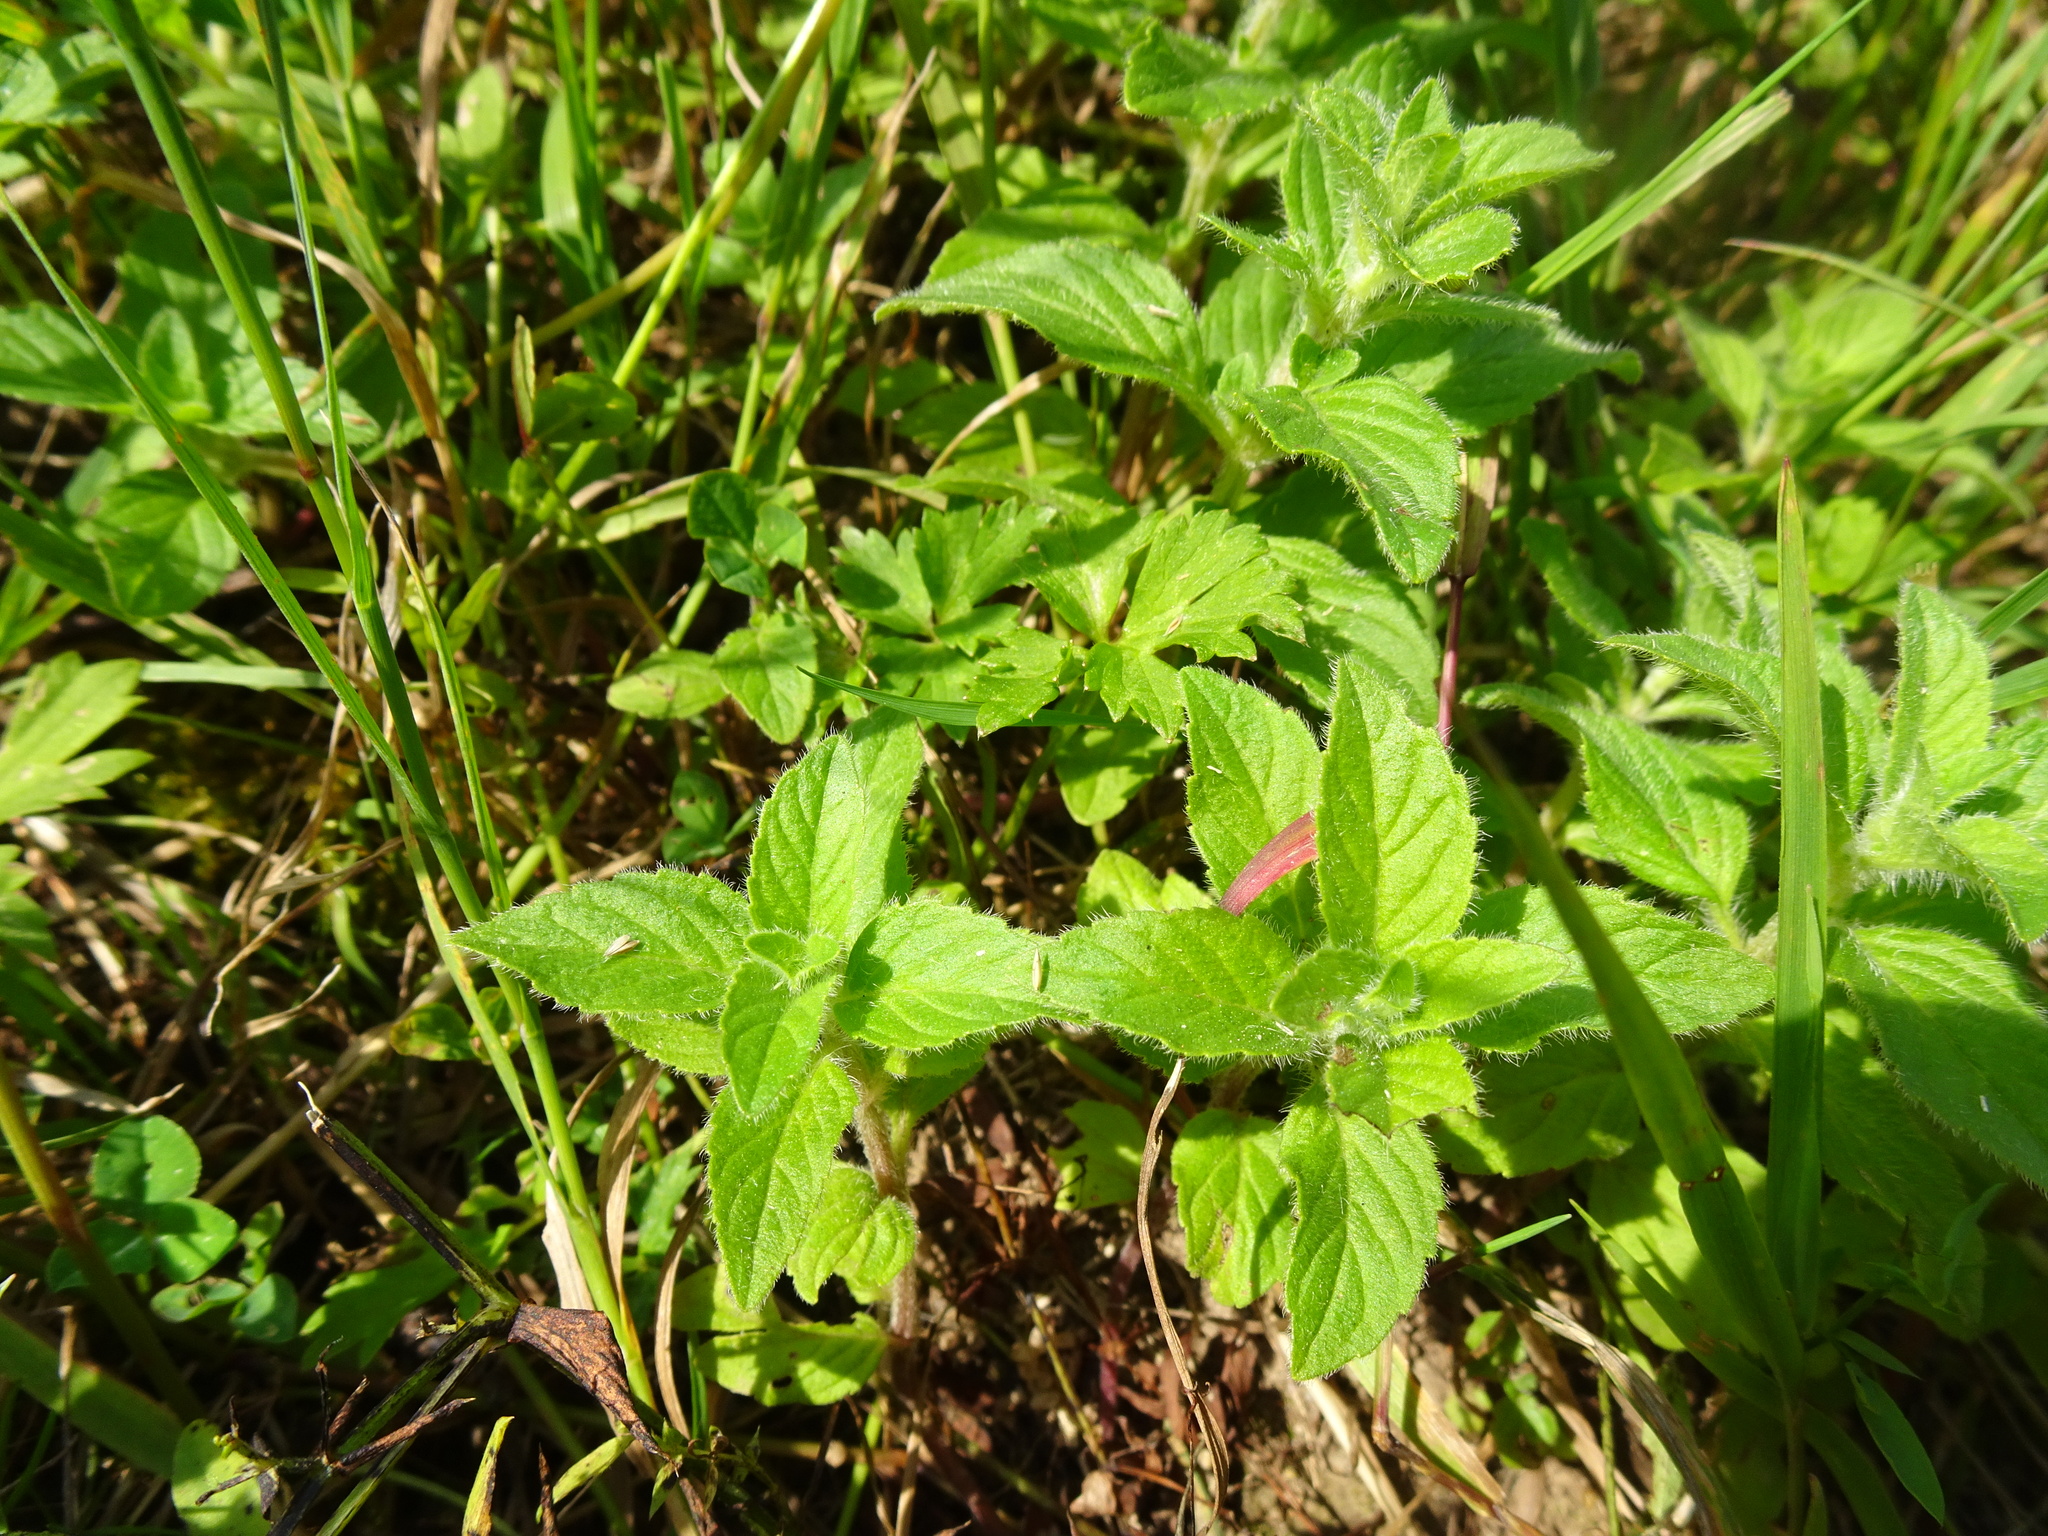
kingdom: Plantae
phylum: Tracheophyta
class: Magnoliopsida
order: Lamiales
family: Lamiaceae
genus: Mentha
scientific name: Mentha arvensis
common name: Corn mint
